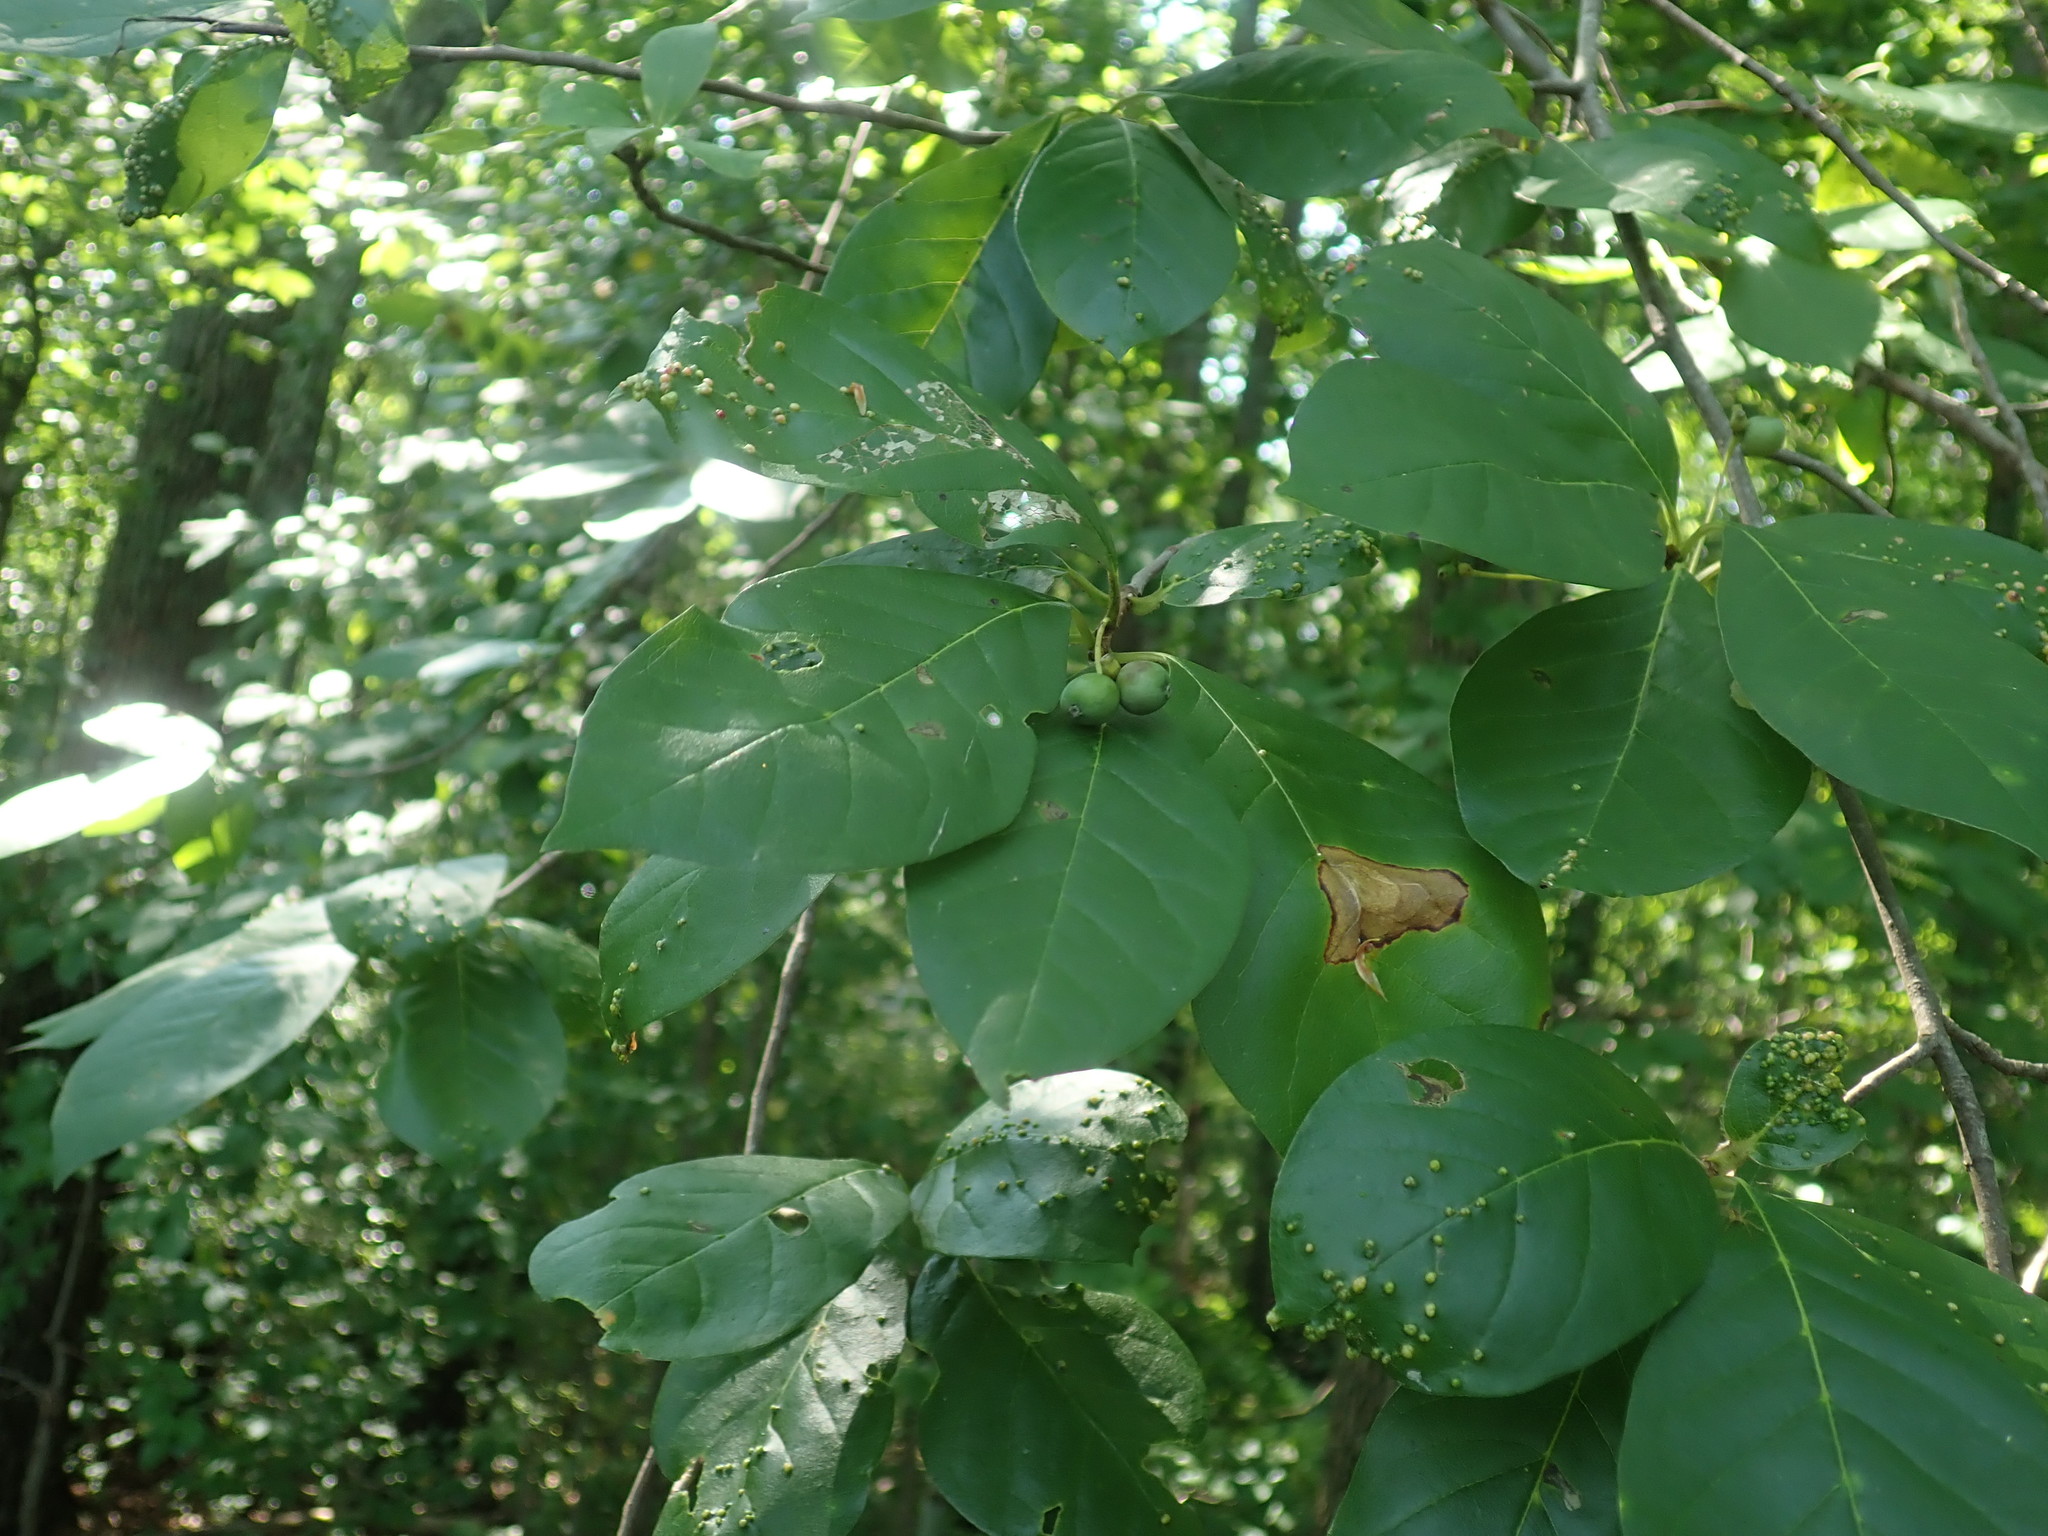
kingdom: Plantae
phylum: Tracheophyta
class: Magnoliopsida
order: Cornales
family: Nyssaceae
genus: Nyssa
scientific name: Nyssa sylvatica
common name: Black tupelo
